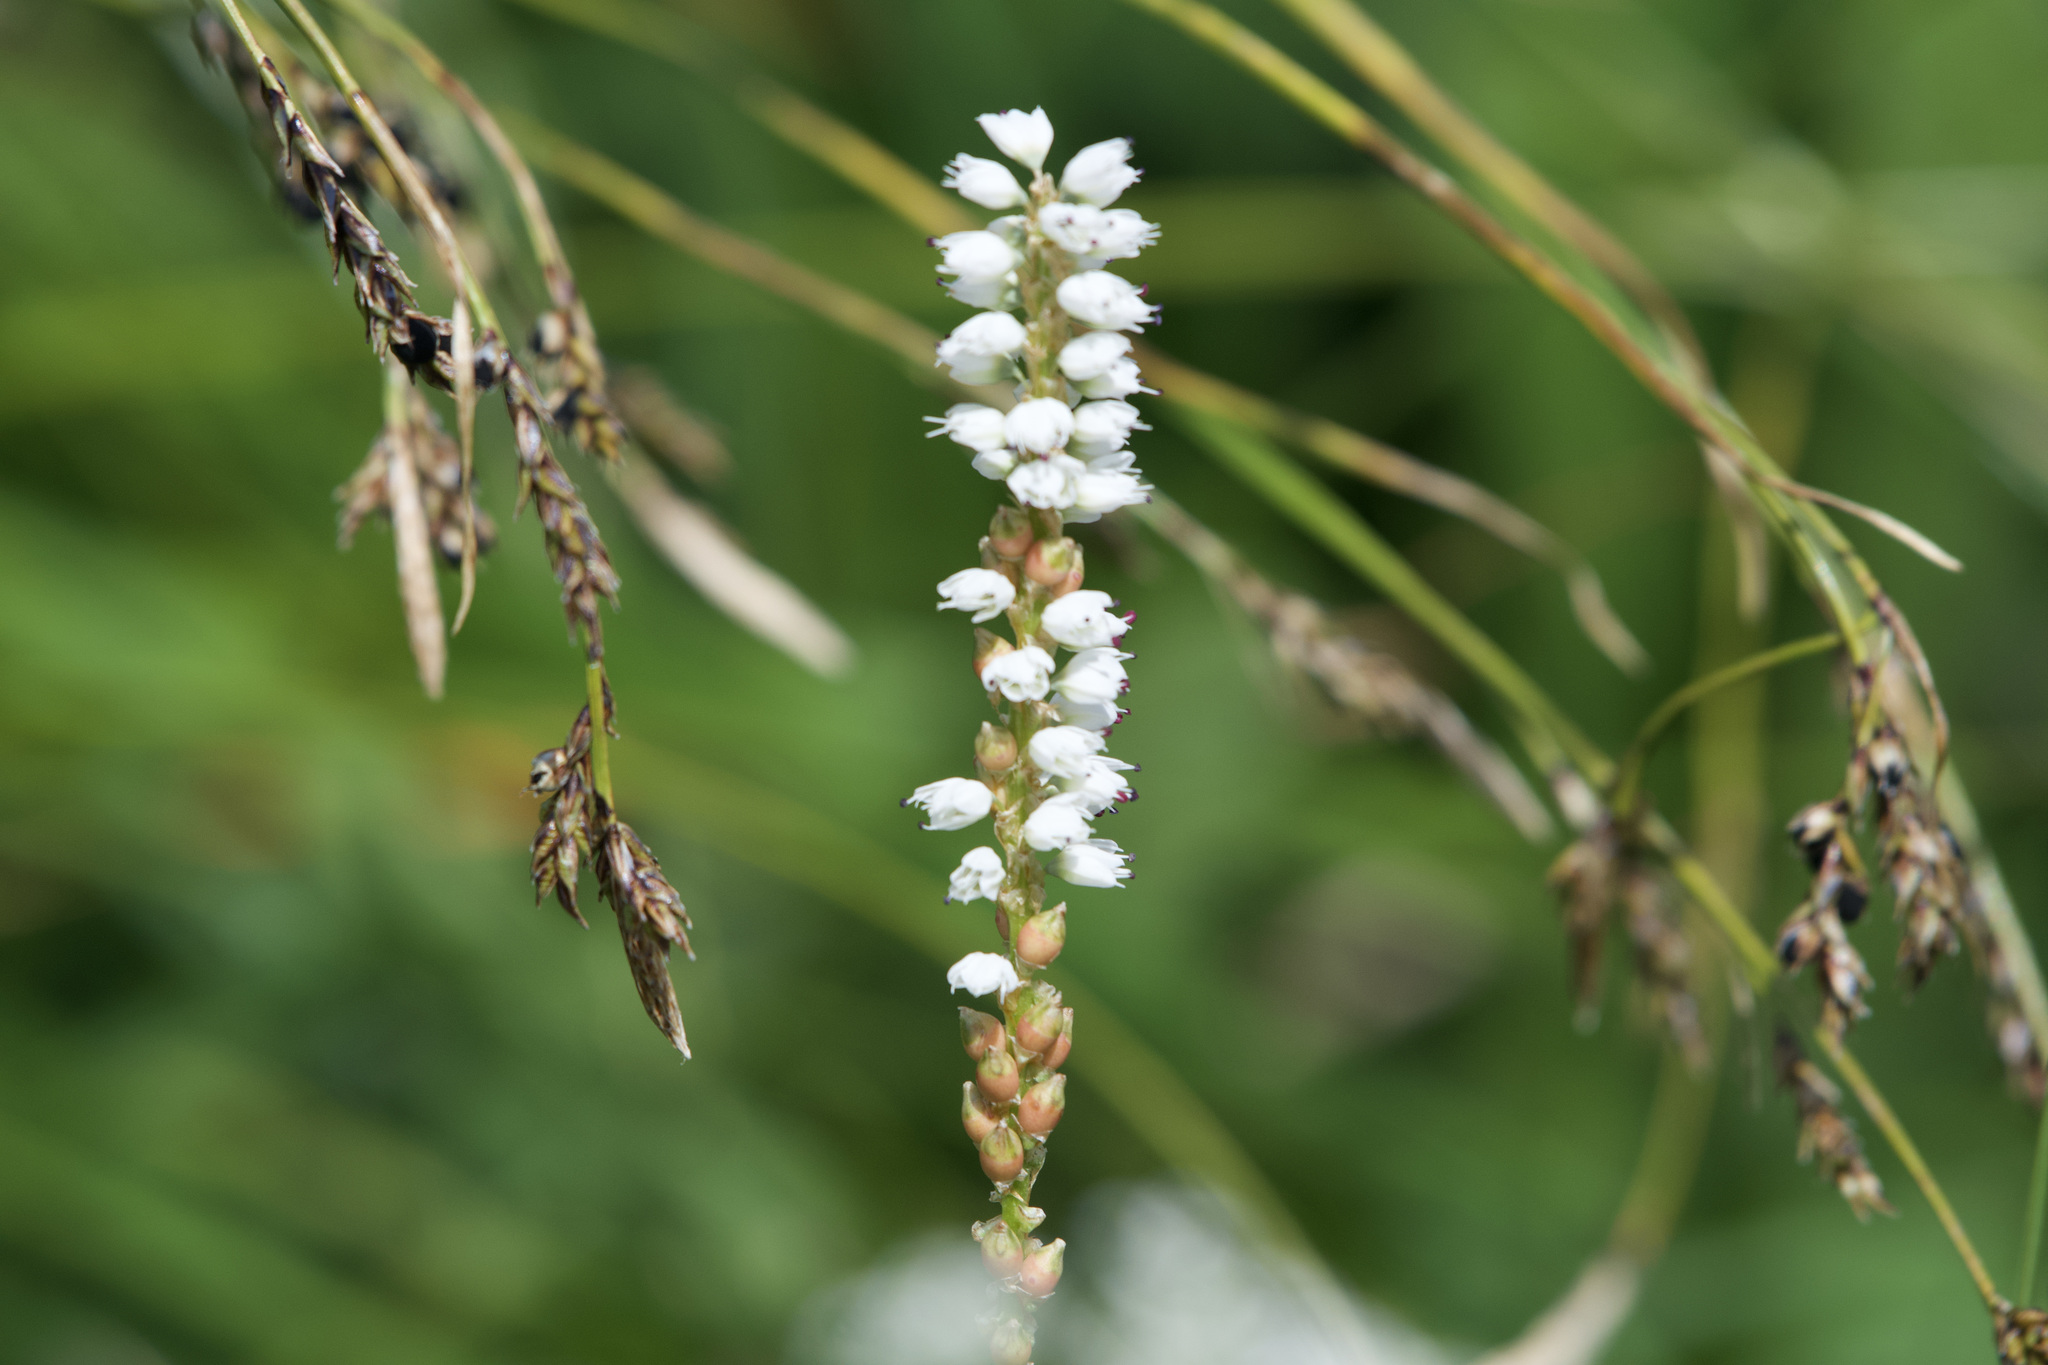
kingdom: Plantae
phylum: Tracheophyta
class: Magnoliopsida
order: Caryophyllales
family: Polygonaceae
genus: Bistorta
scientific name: Bistorta vivipara
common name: Alpine bistort
